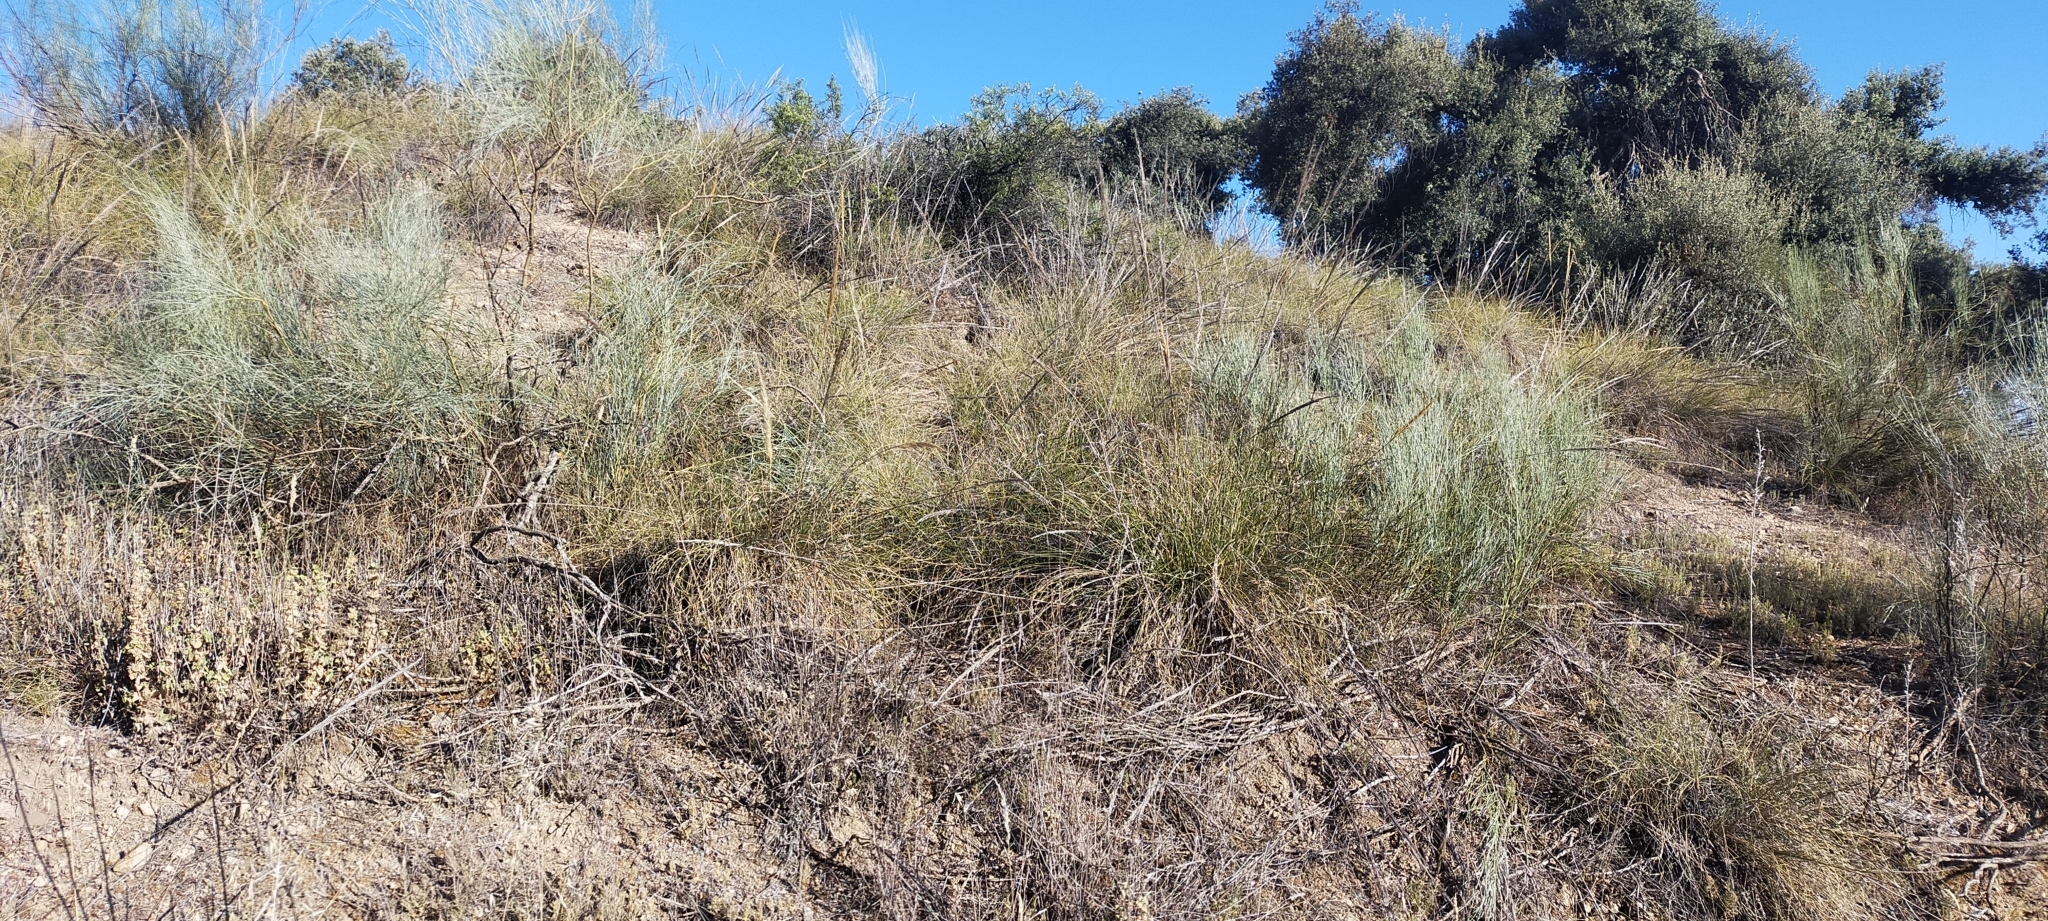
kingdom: Plantae
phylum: Tracheophyta
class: Magnoliopsida
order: Fabales
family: Fabaceae
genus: Retama
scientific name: Retama sphaerocarpa
